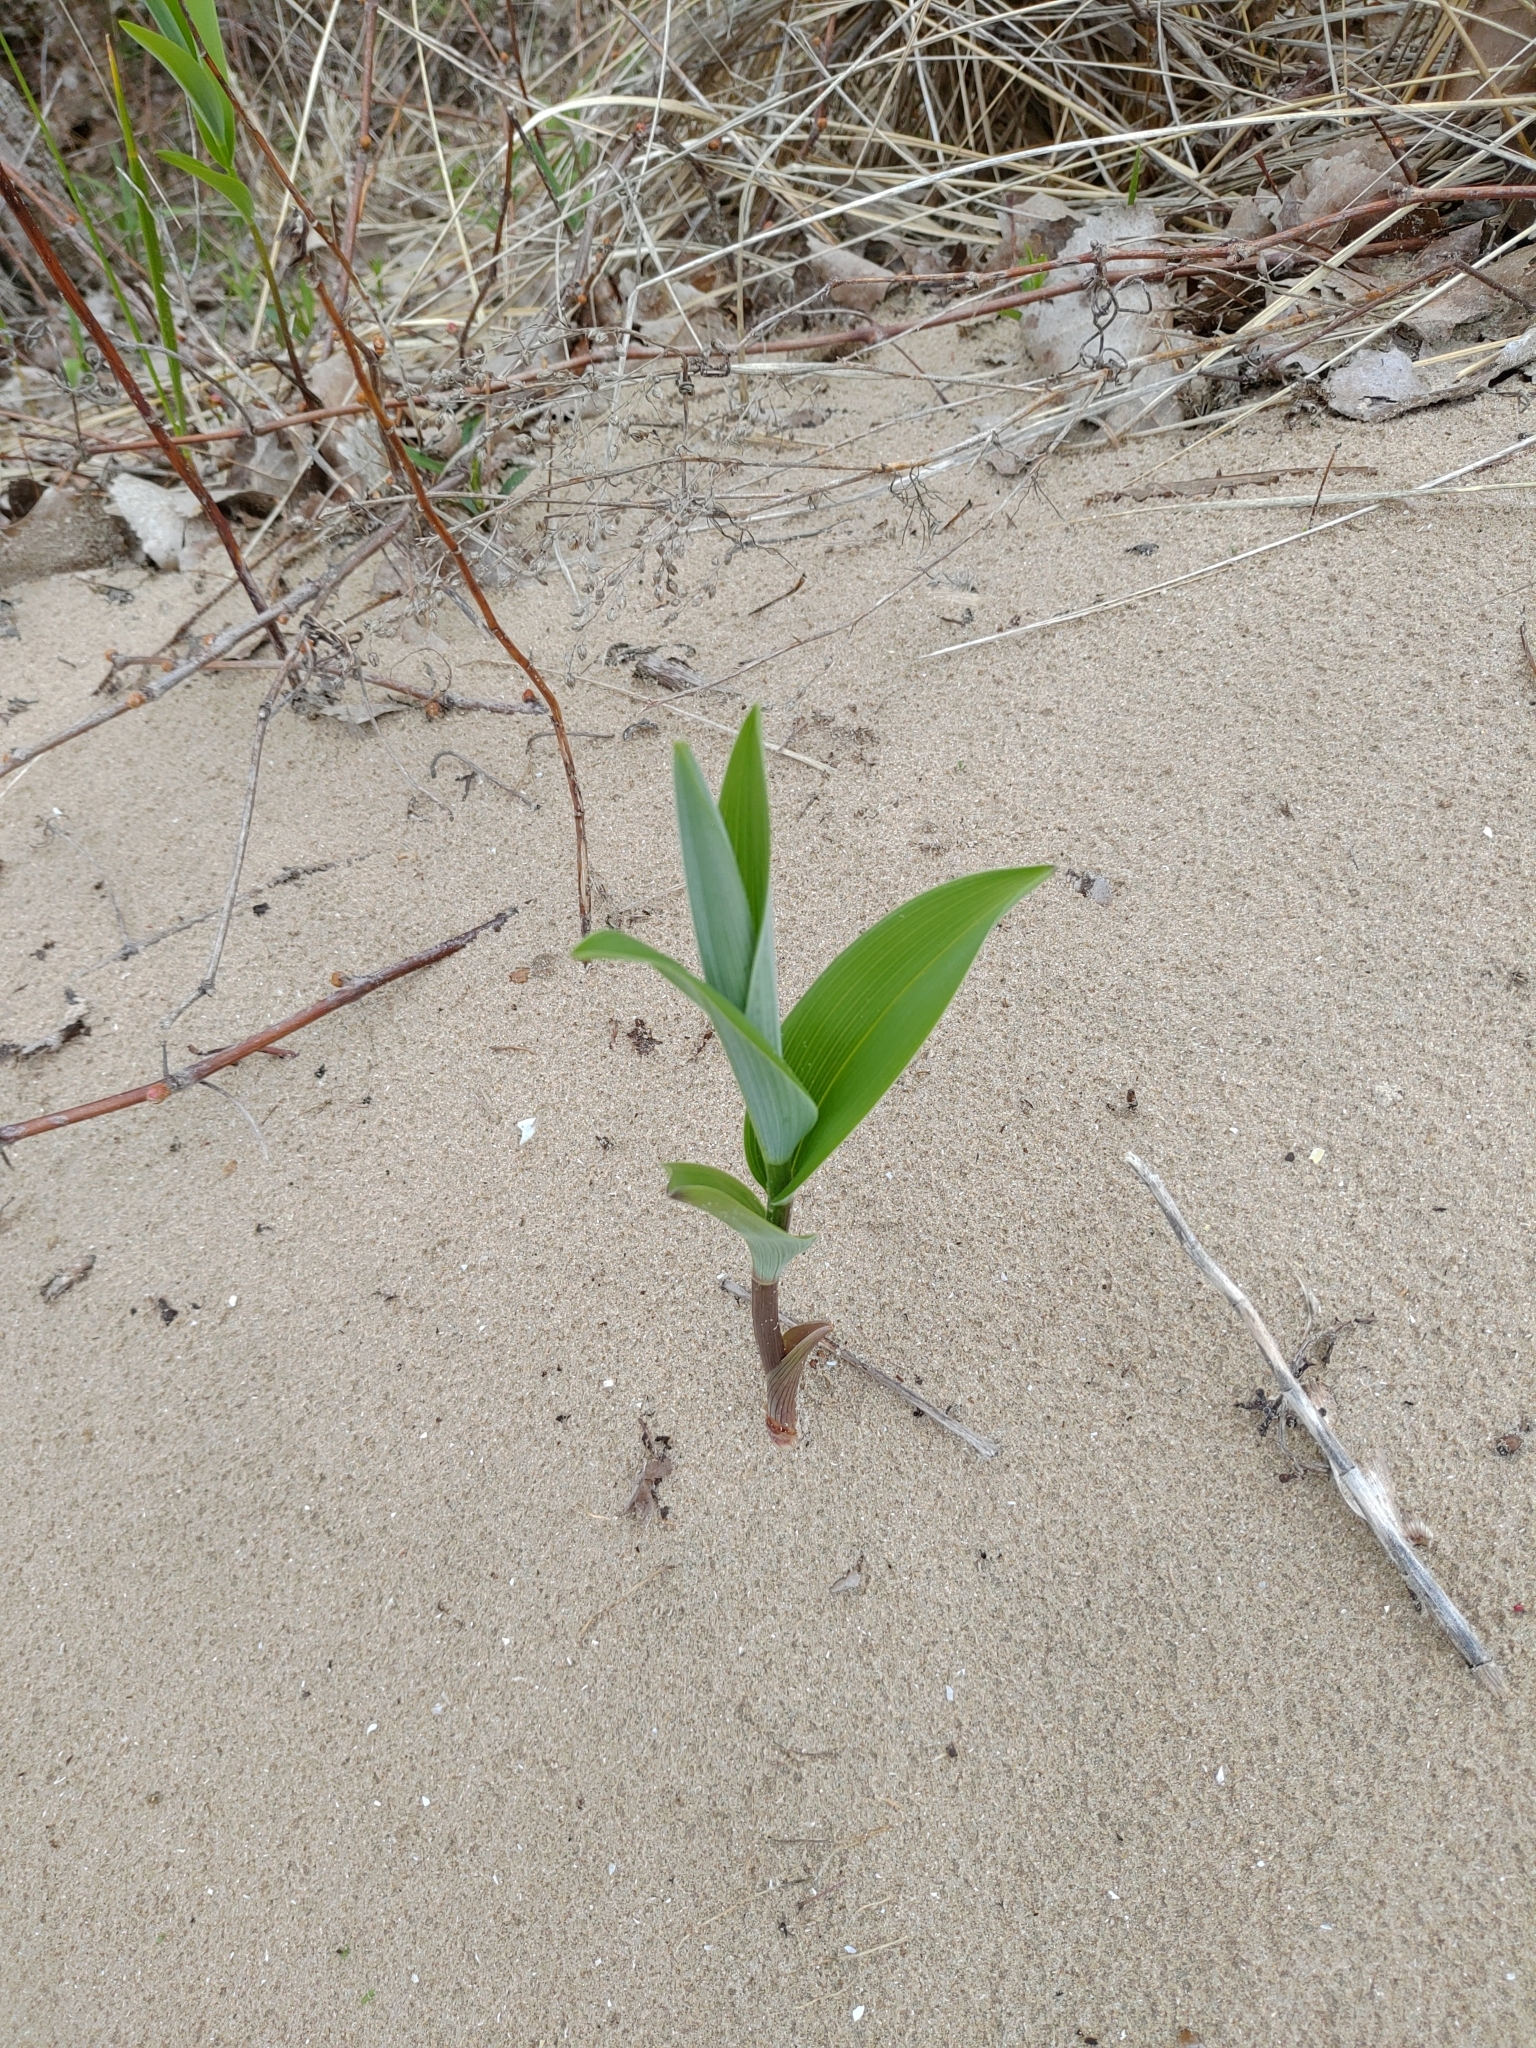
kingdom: Plantae
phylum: Tracheophyta
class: Liliopsida
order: Asparagales
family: Asparagaceae
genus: Maianthemum
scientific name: Maianthemum stellatum
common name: Little false solomon's seal
